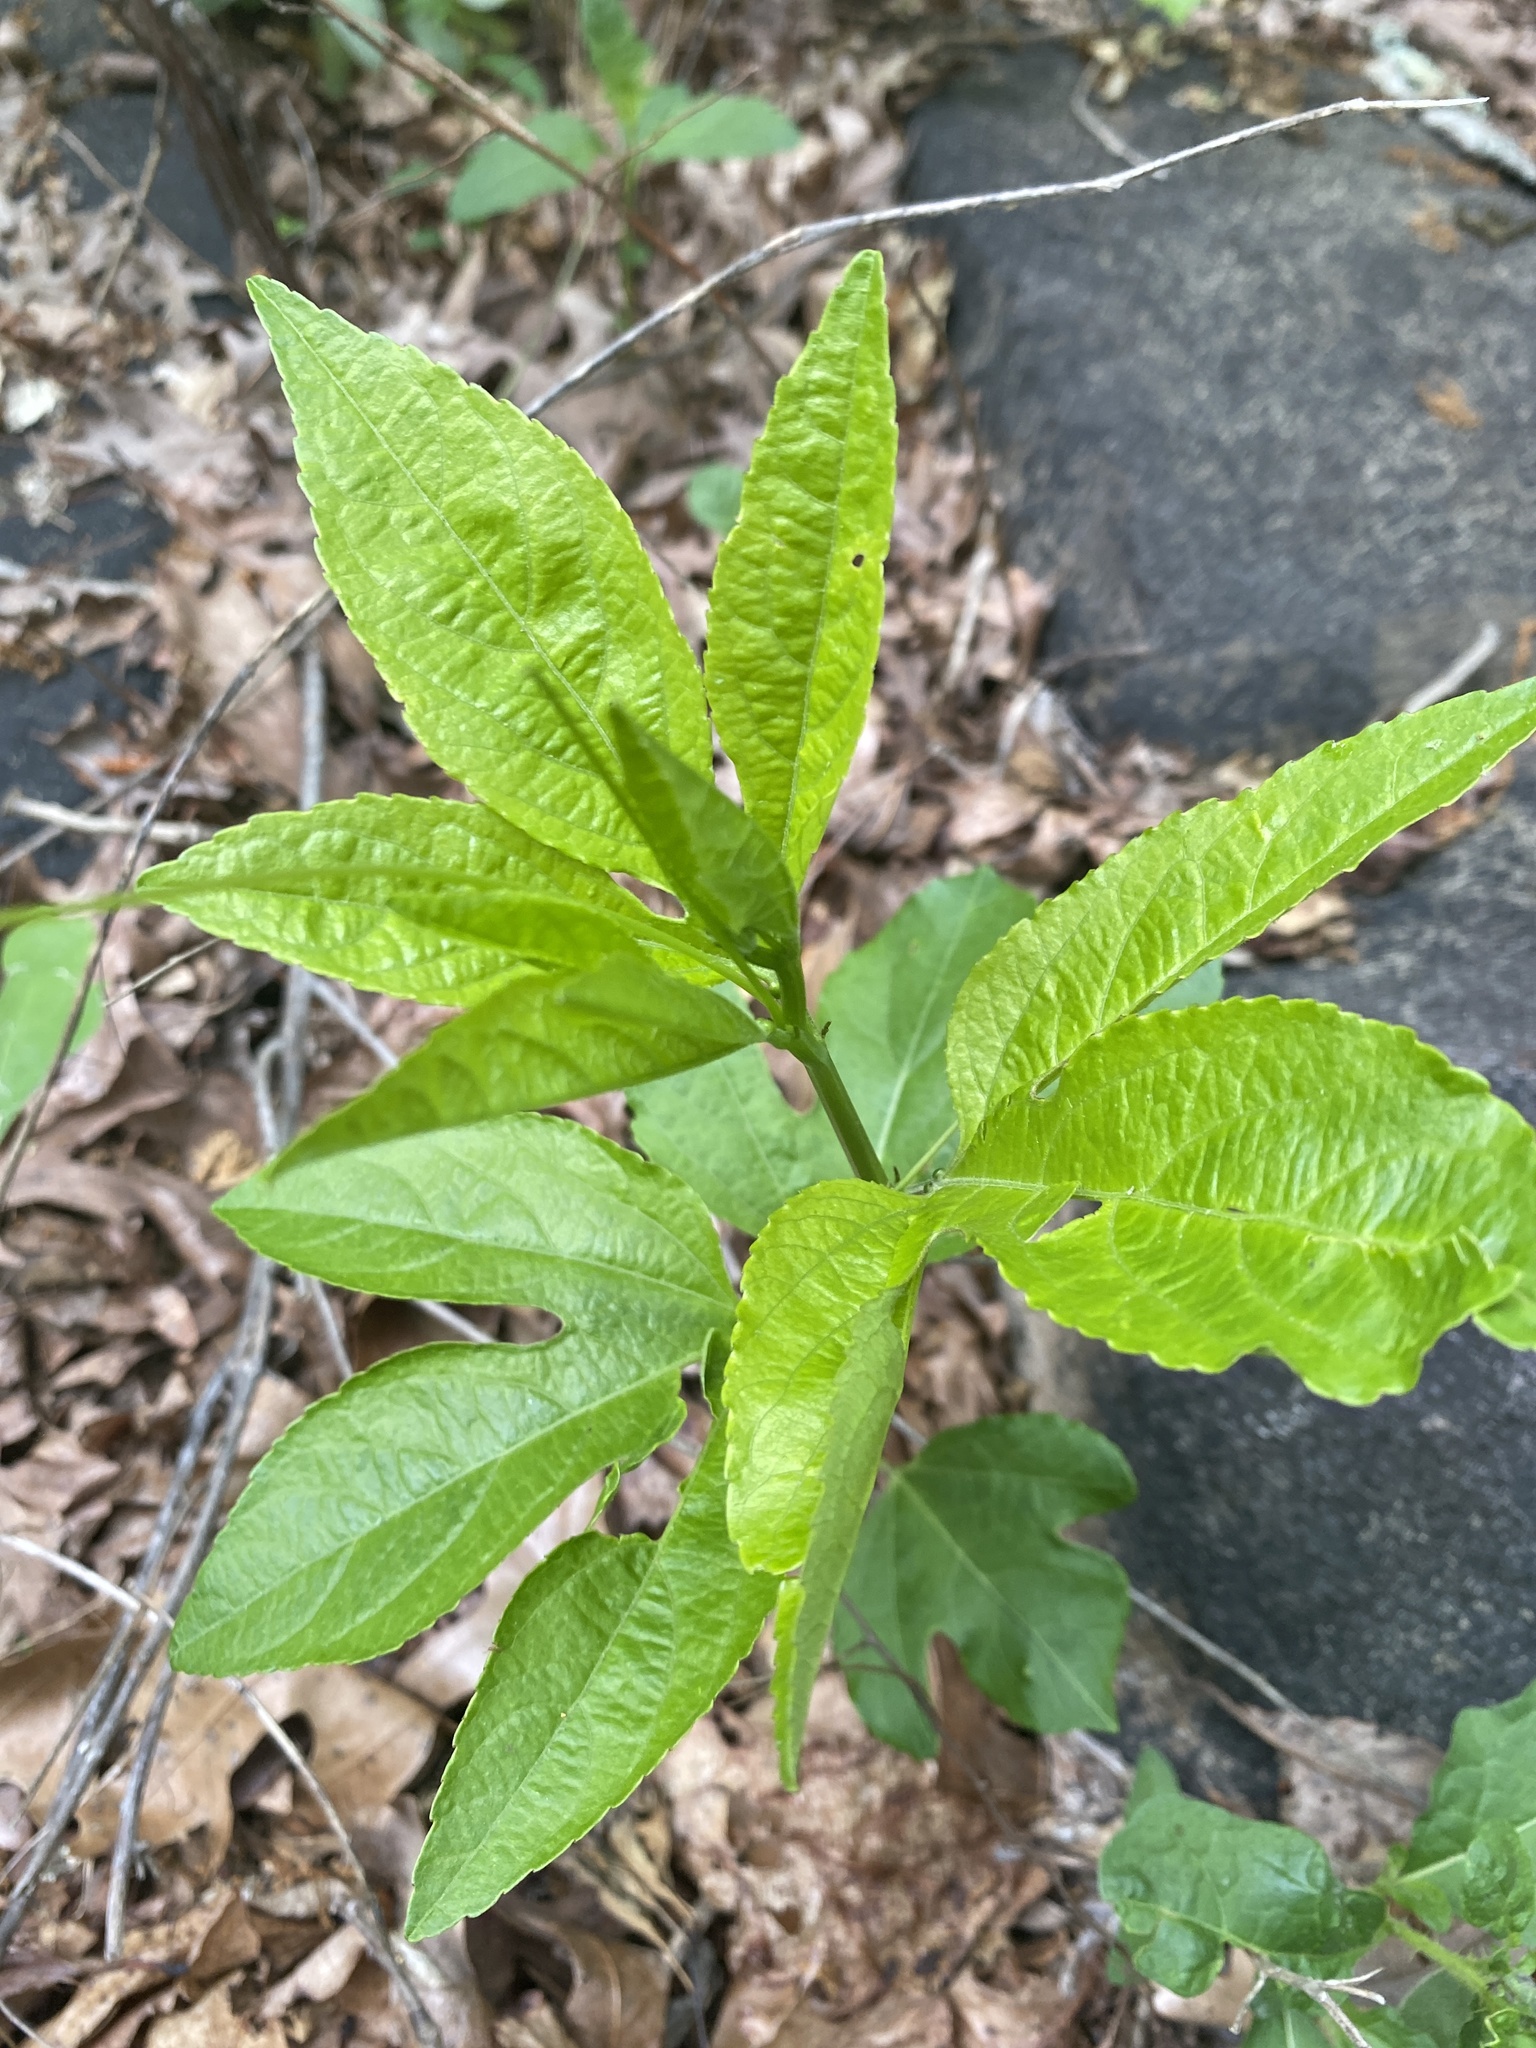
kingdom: Plantae
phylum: Tracheophyta
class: Magnoliopsida
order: Malpighiales
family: Passifloraceae
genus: Passiflora
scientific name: Passiflora incarnata
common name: Apricot-vine
